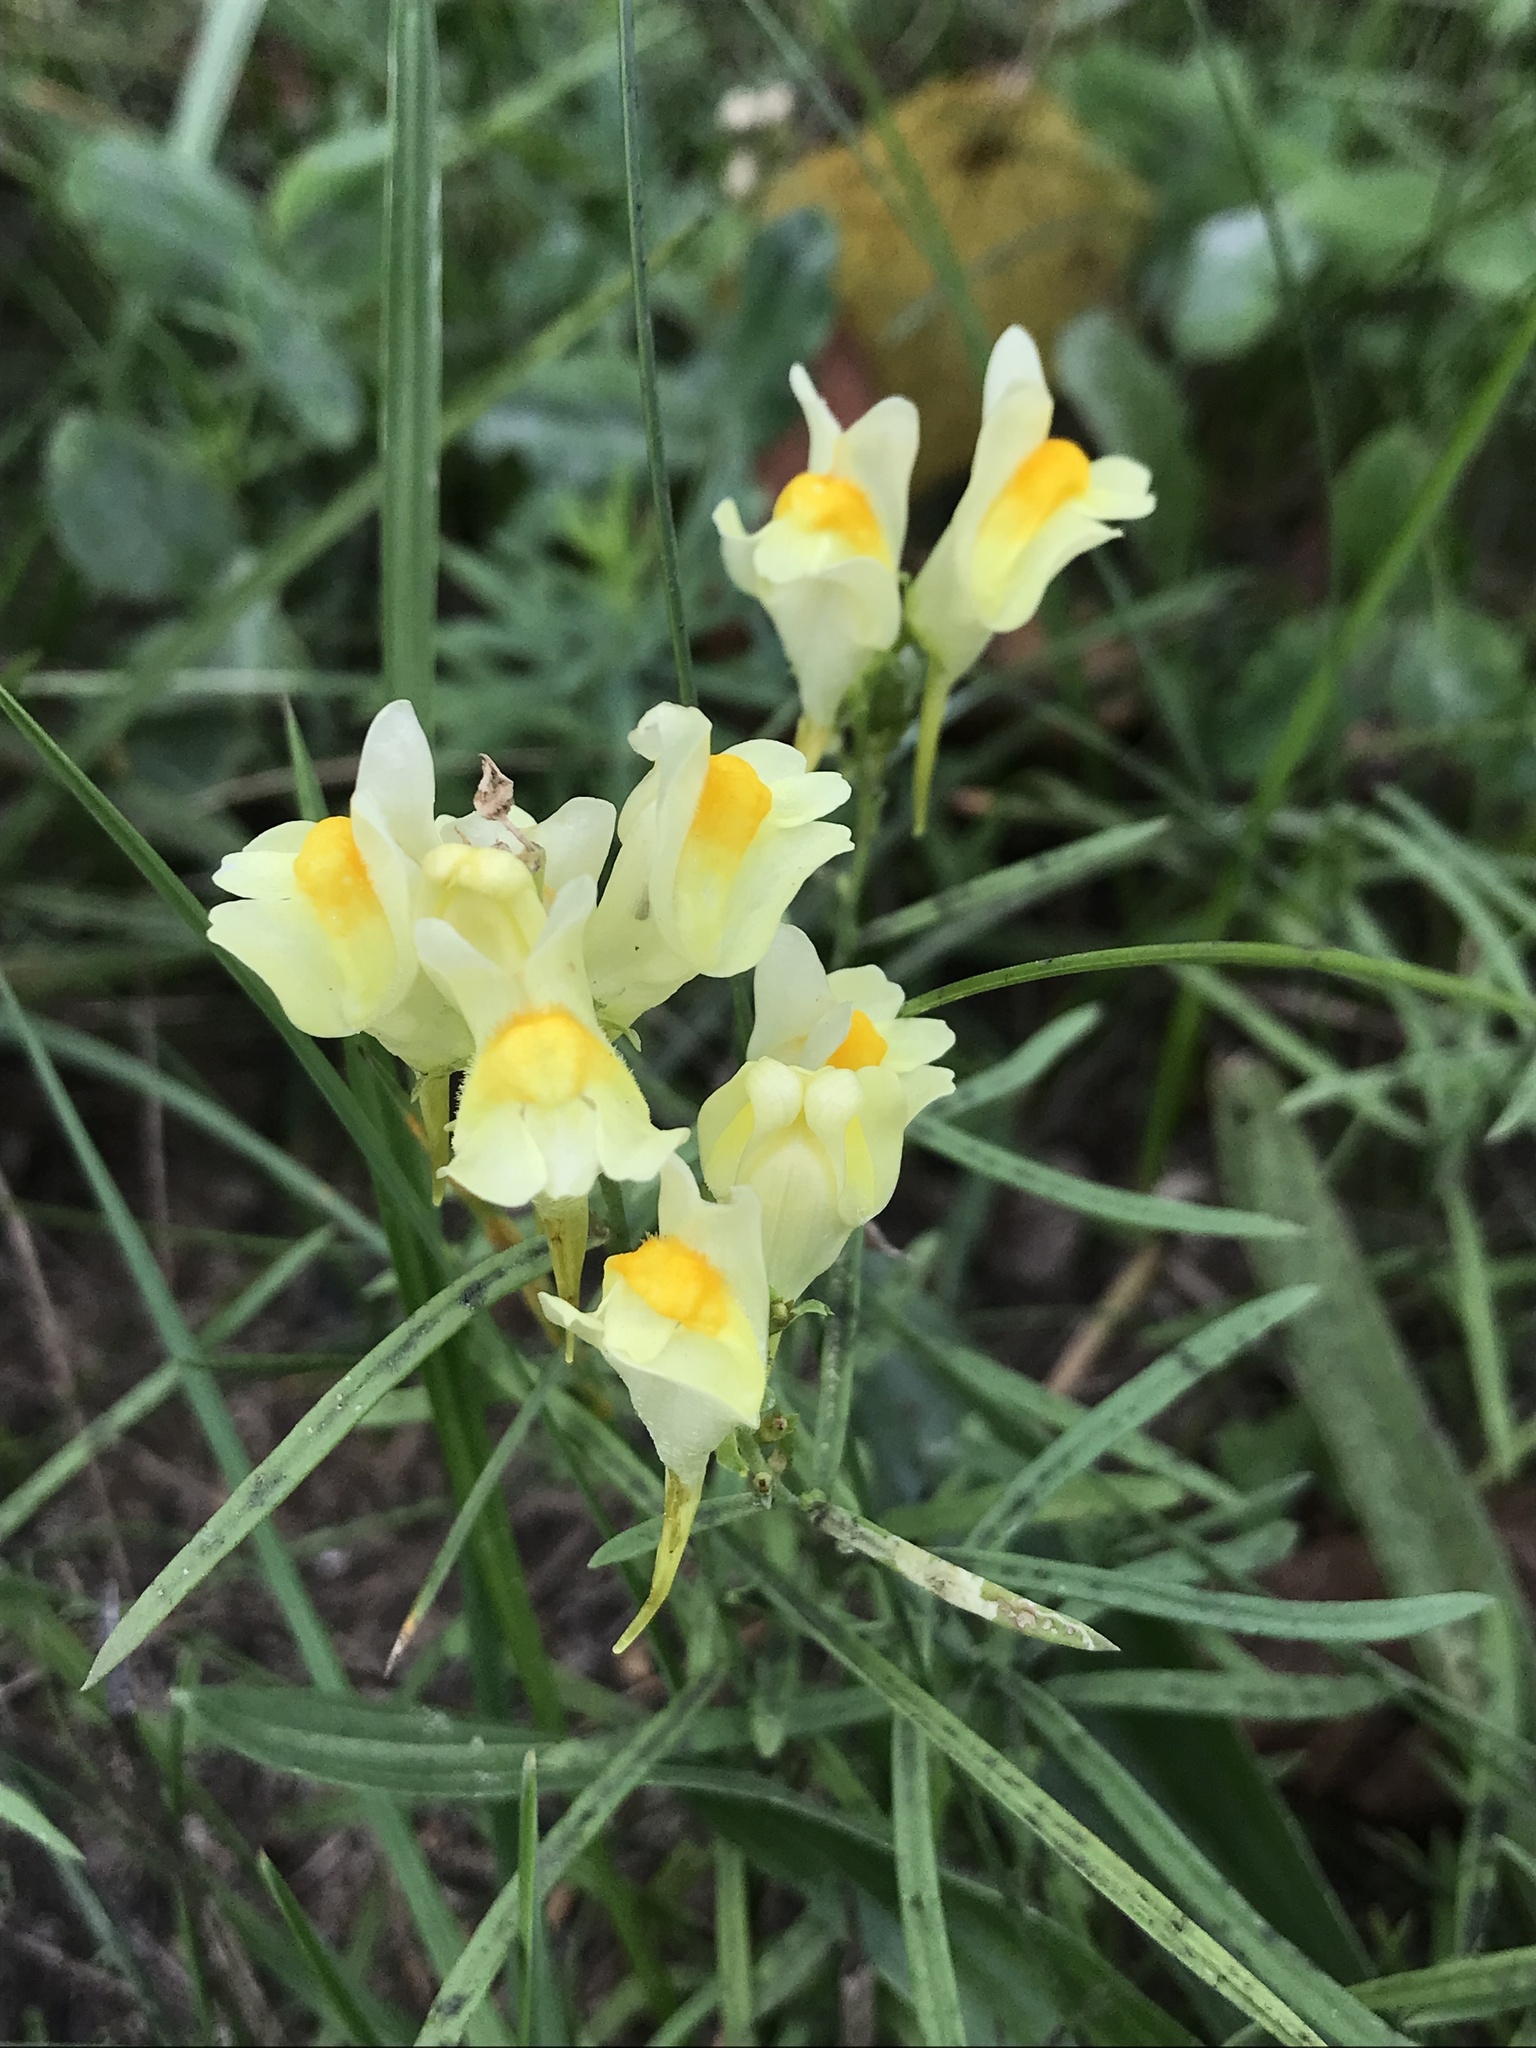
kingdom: Plantae
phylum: Tracheophyta
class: Magnoliopsida
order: Lamiales
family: Plantaginaceae
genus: Linaria
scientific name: Linaria vulgaris
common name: Butter and eggs
